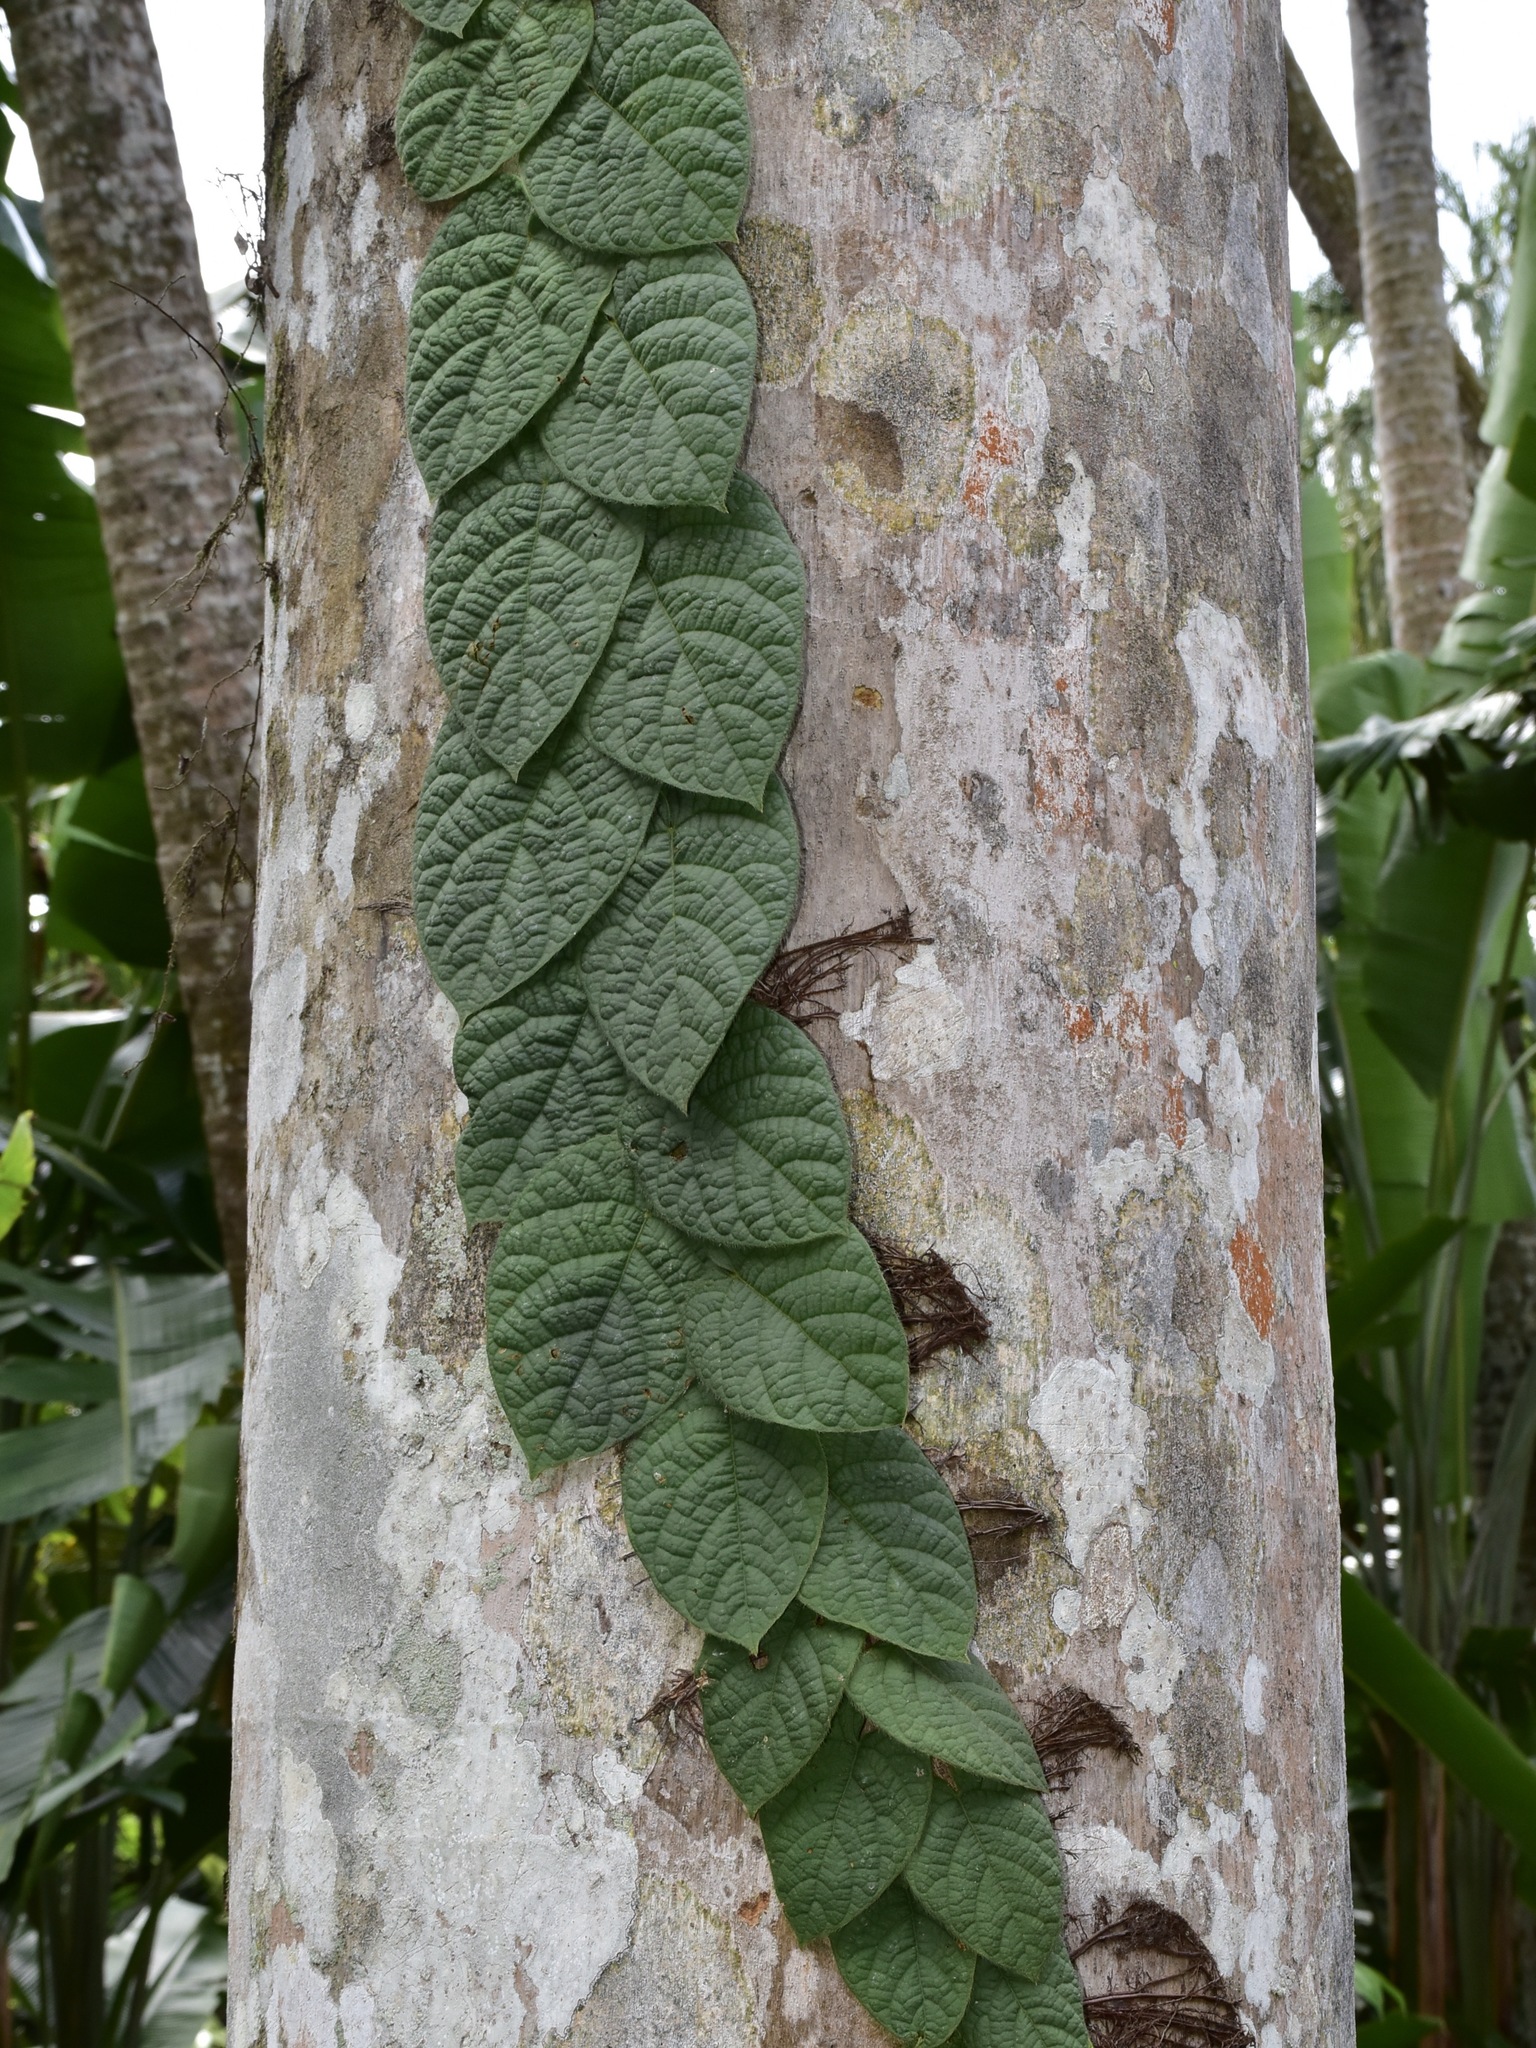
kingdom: Plantae
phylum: Tracheophyta
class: Magnoliopsida
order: Rosales
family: Moraceae
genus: Ficus
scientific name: Ficus villosa
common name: Villous fig
